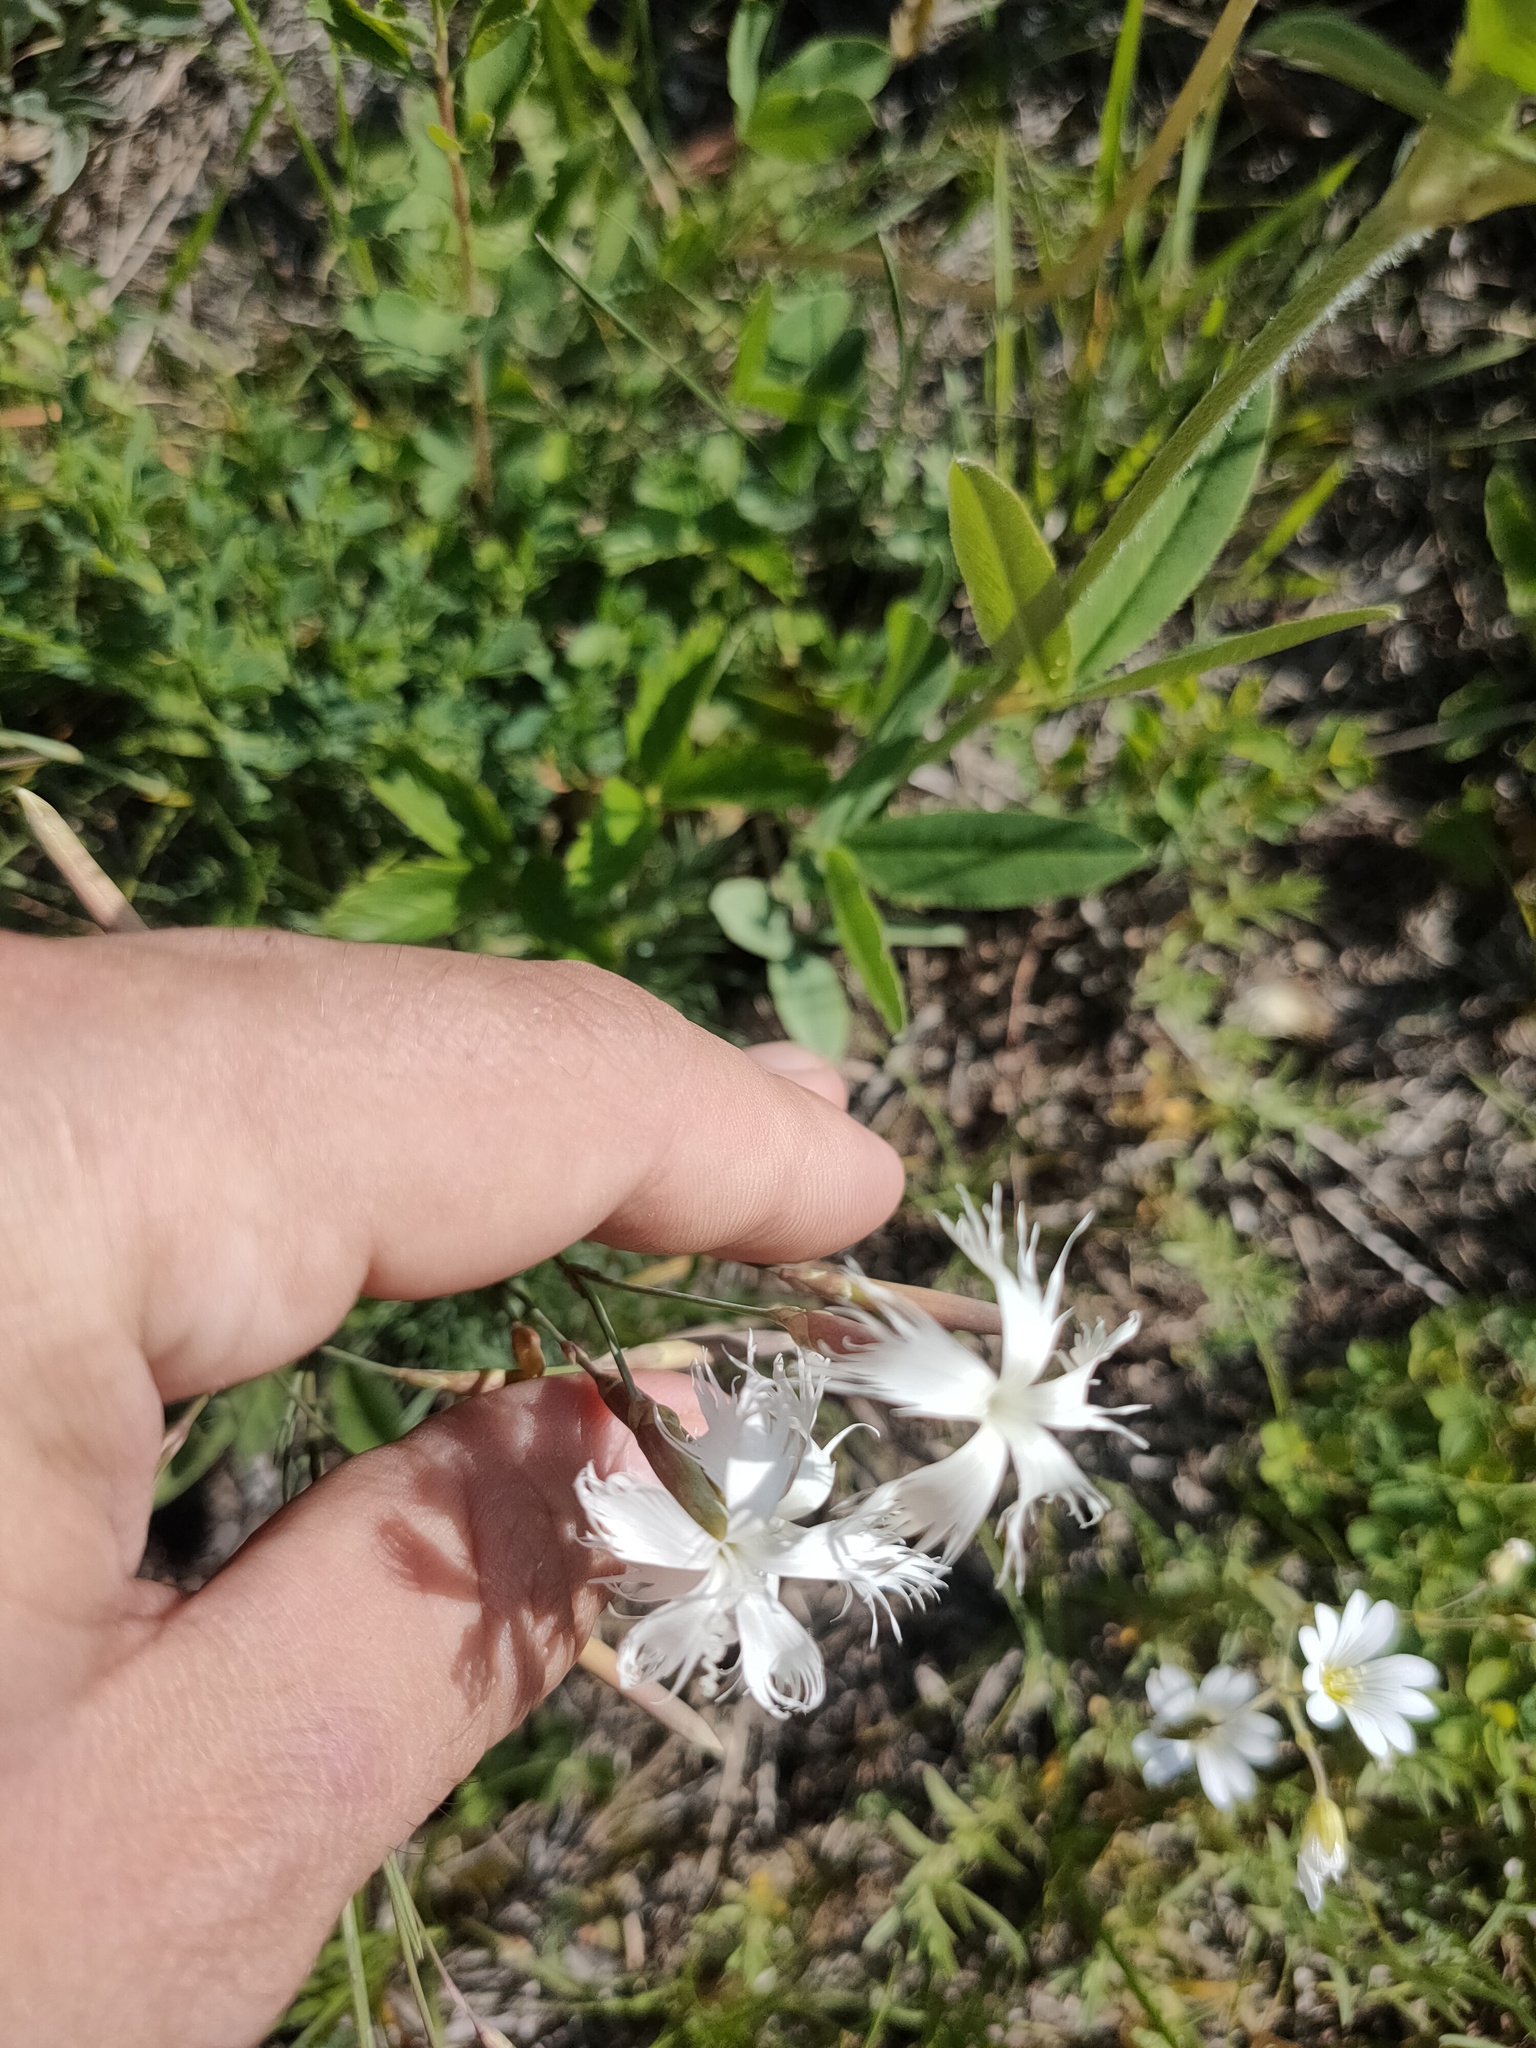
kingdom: Plantae
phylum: Tracheophyta
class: Magnoliopsida
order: Caryophyllales
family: Caryophyllaceae
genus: Dianthus
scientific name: Dianthus acicularis
